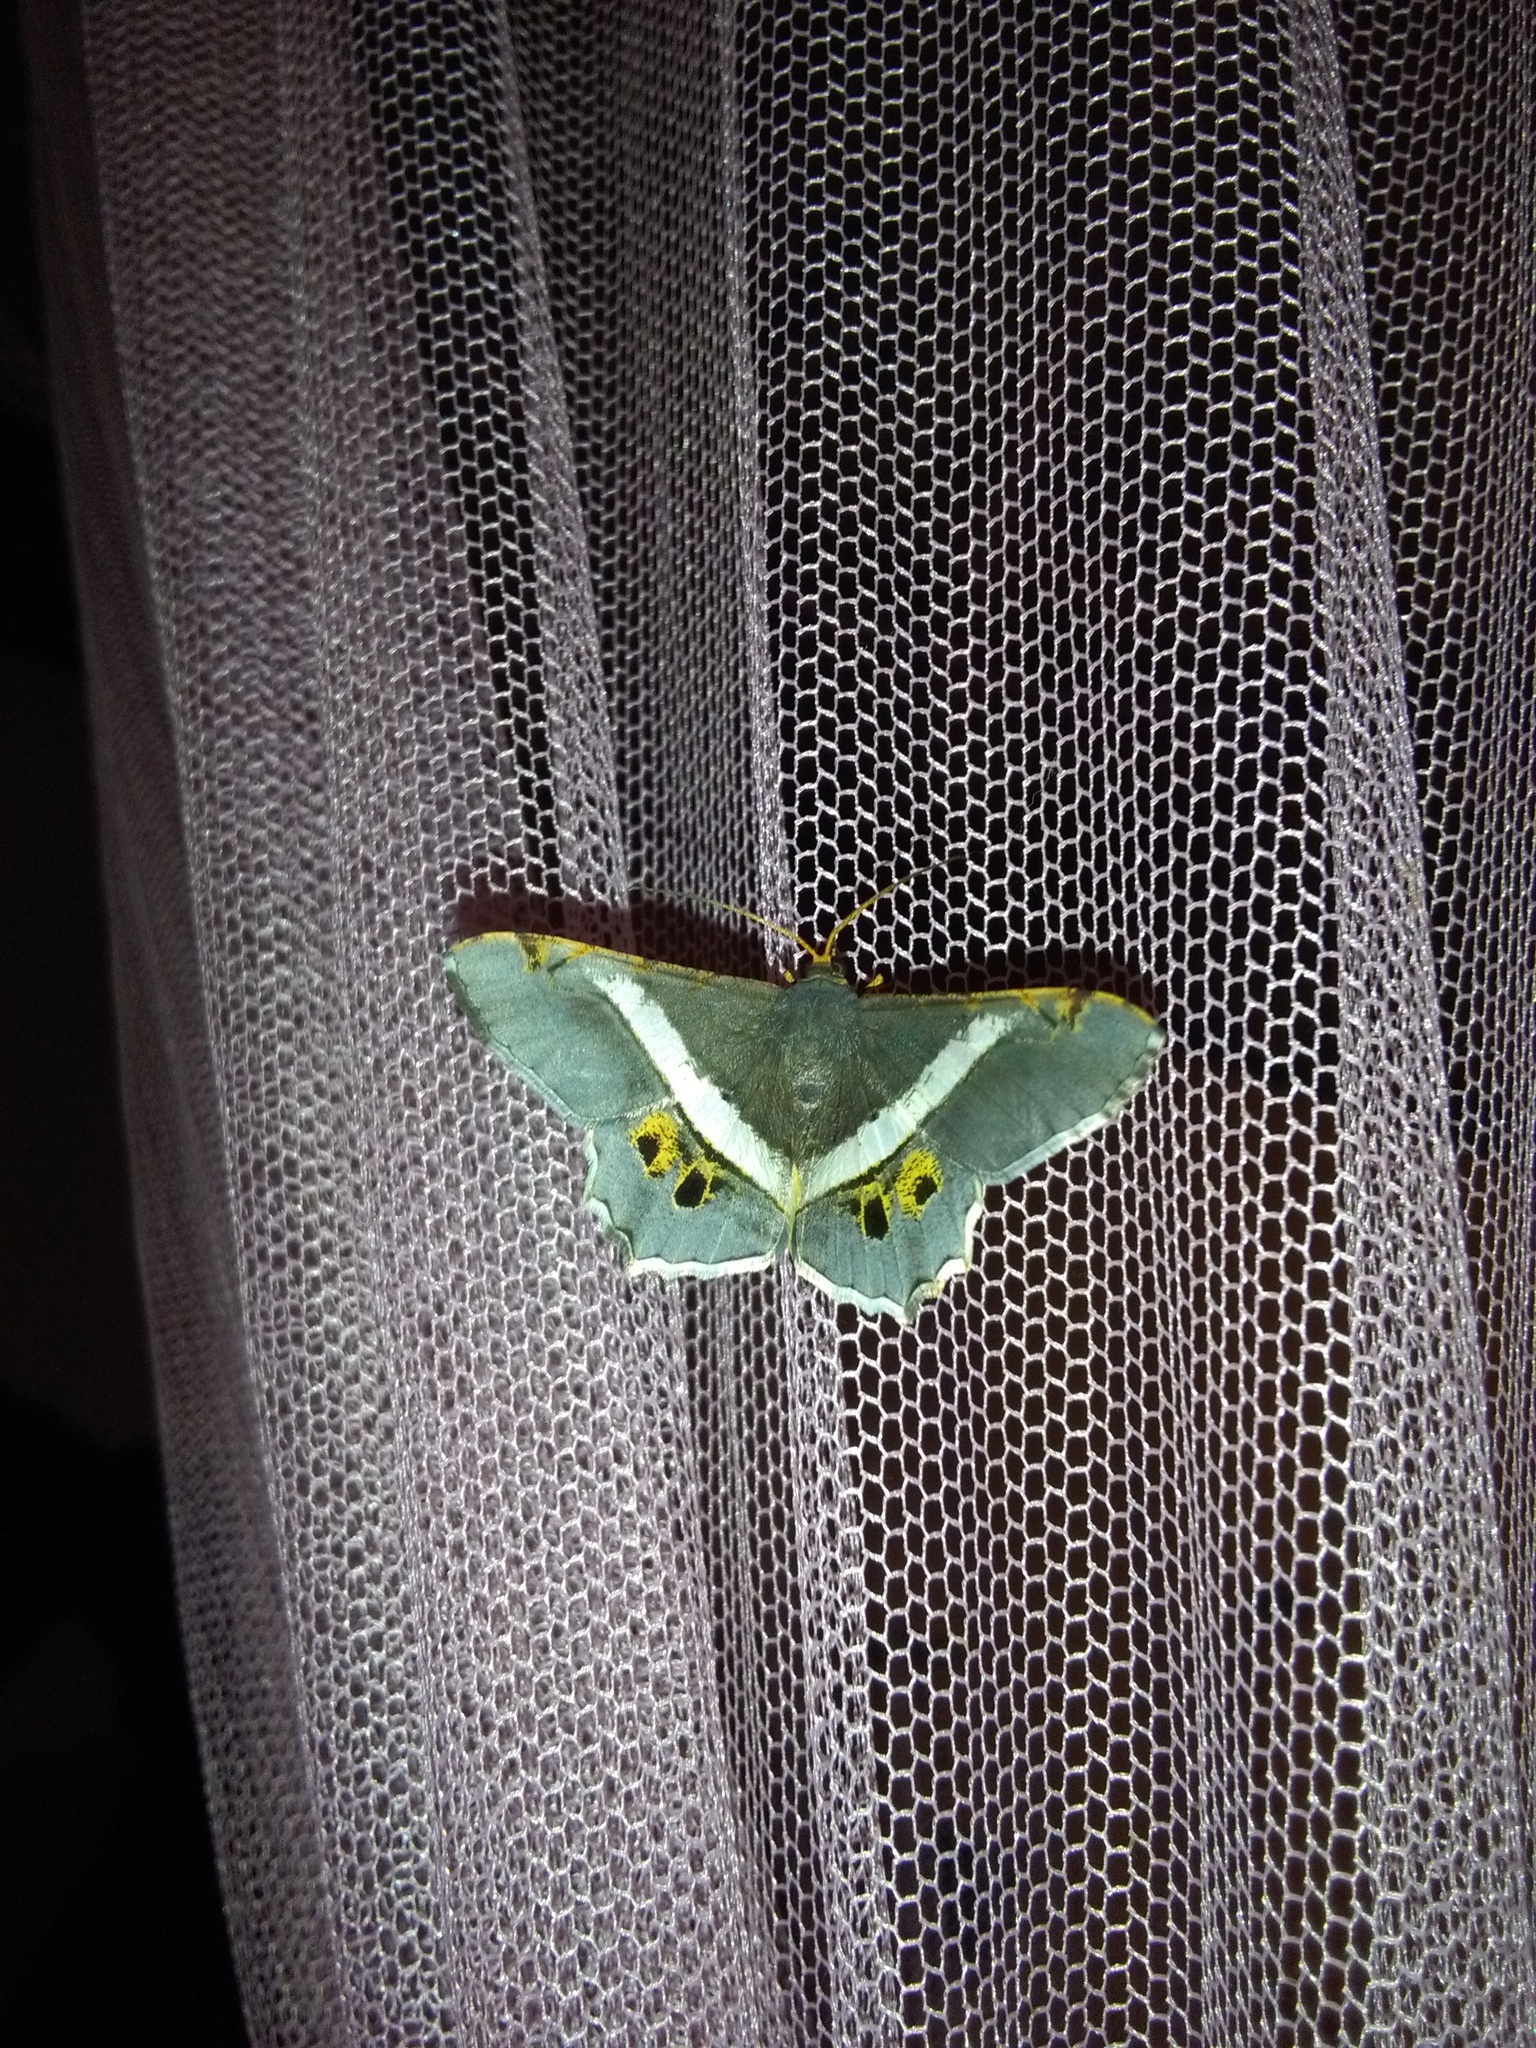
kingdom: Animalia
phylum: Arthropoda
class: Insecta
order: Lepidoptera
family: Geometridae
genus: Chiasmia
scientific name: Chiasmia nora
